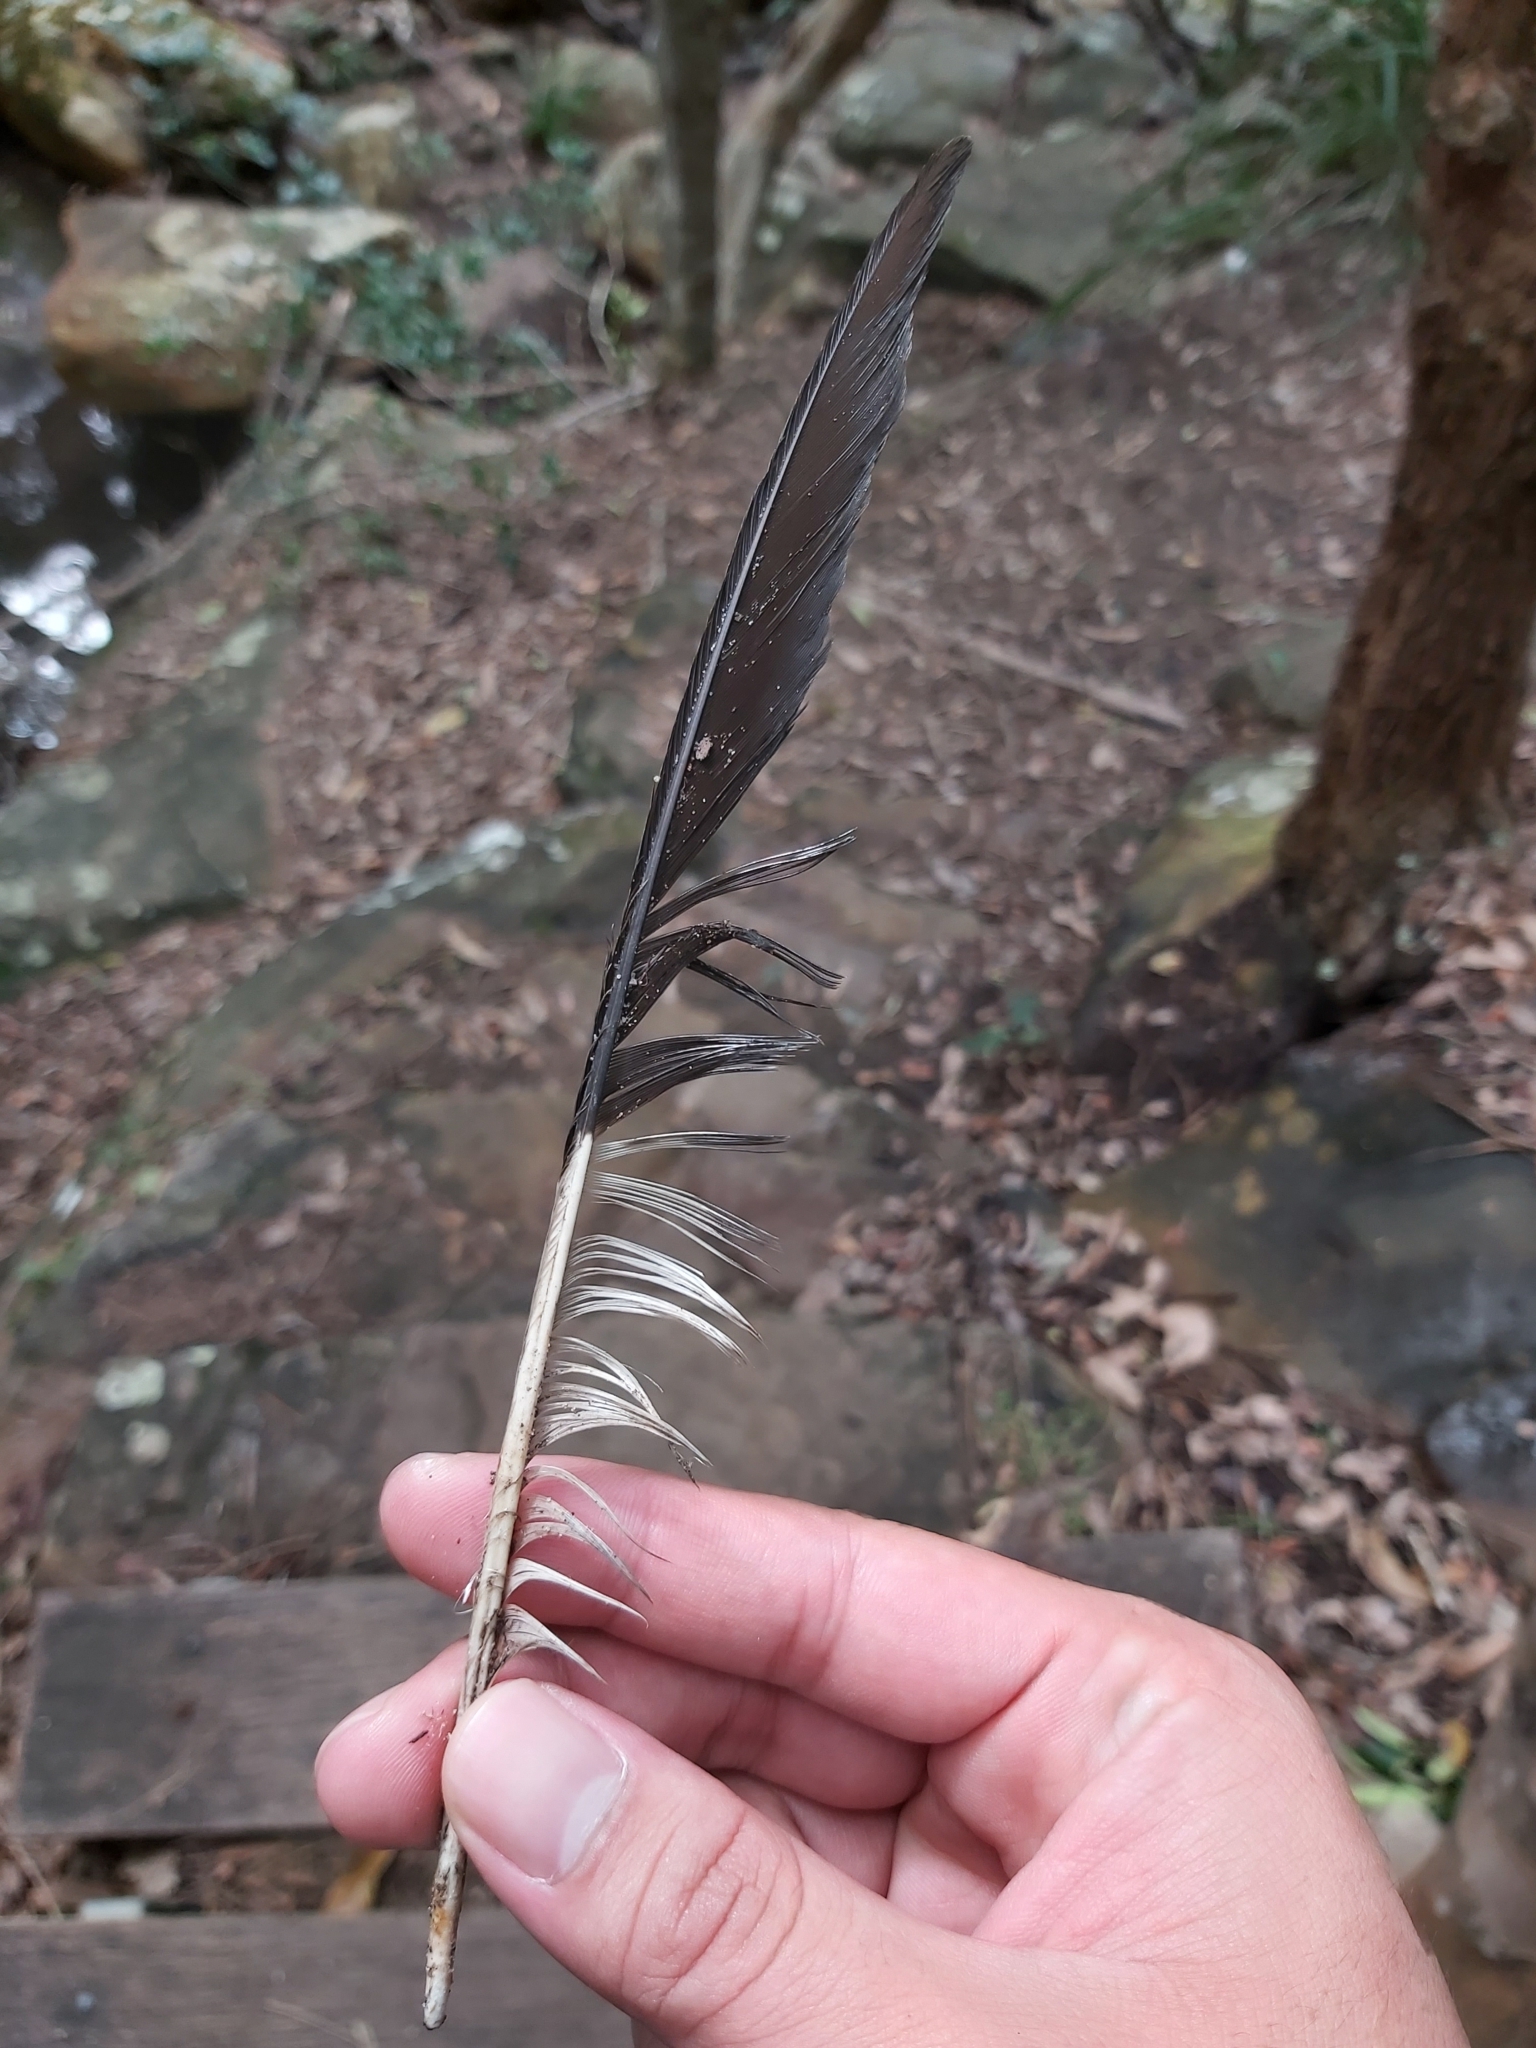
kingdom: Animalia
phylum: Chordata
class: Aves
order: Passeriformes
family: Cracticidae
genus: Strepera
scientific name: Strepera graculina
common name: Pied currawong
